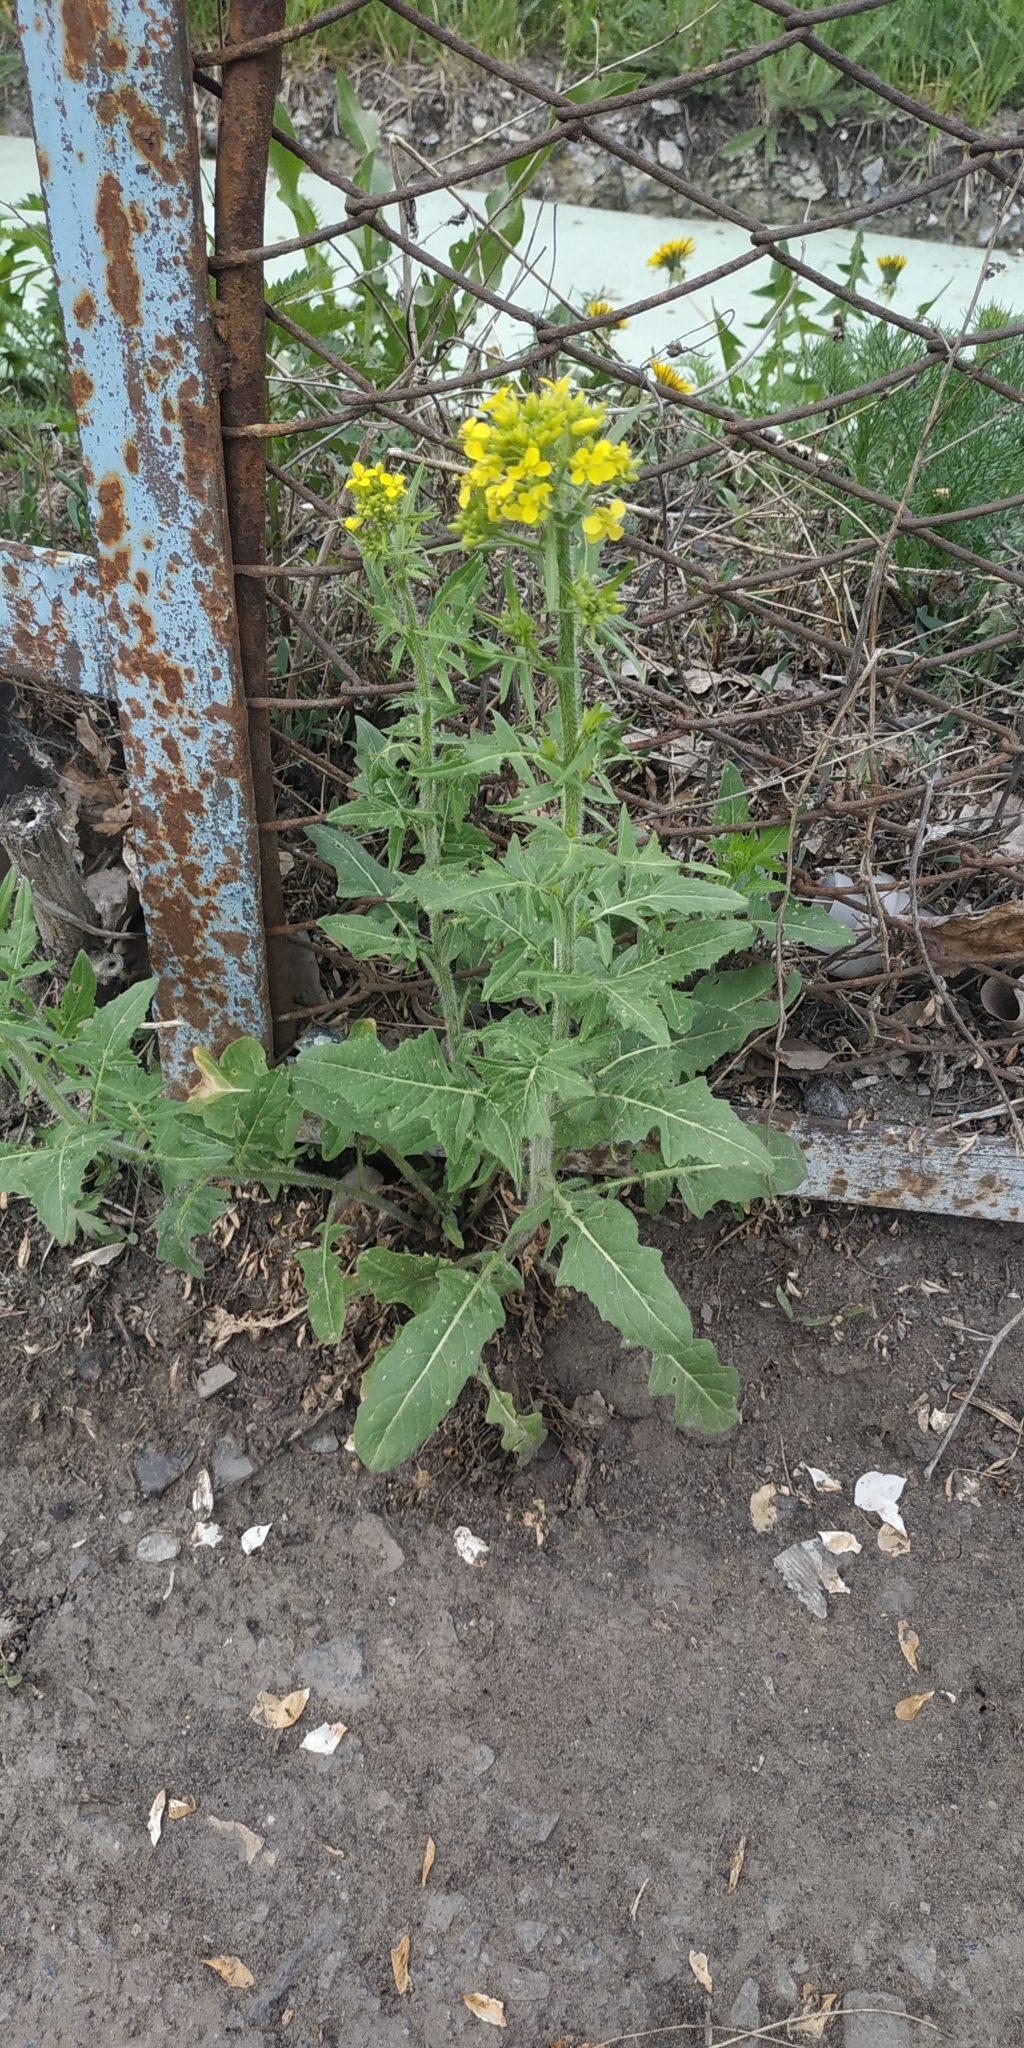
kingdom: Plantae
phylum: Tracheophyta
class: Magnoliopsida
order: Brassicales
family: Brassicaceae
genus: Sisymbrium
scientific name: Sisymbrium loeselii
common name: False london-rocket
